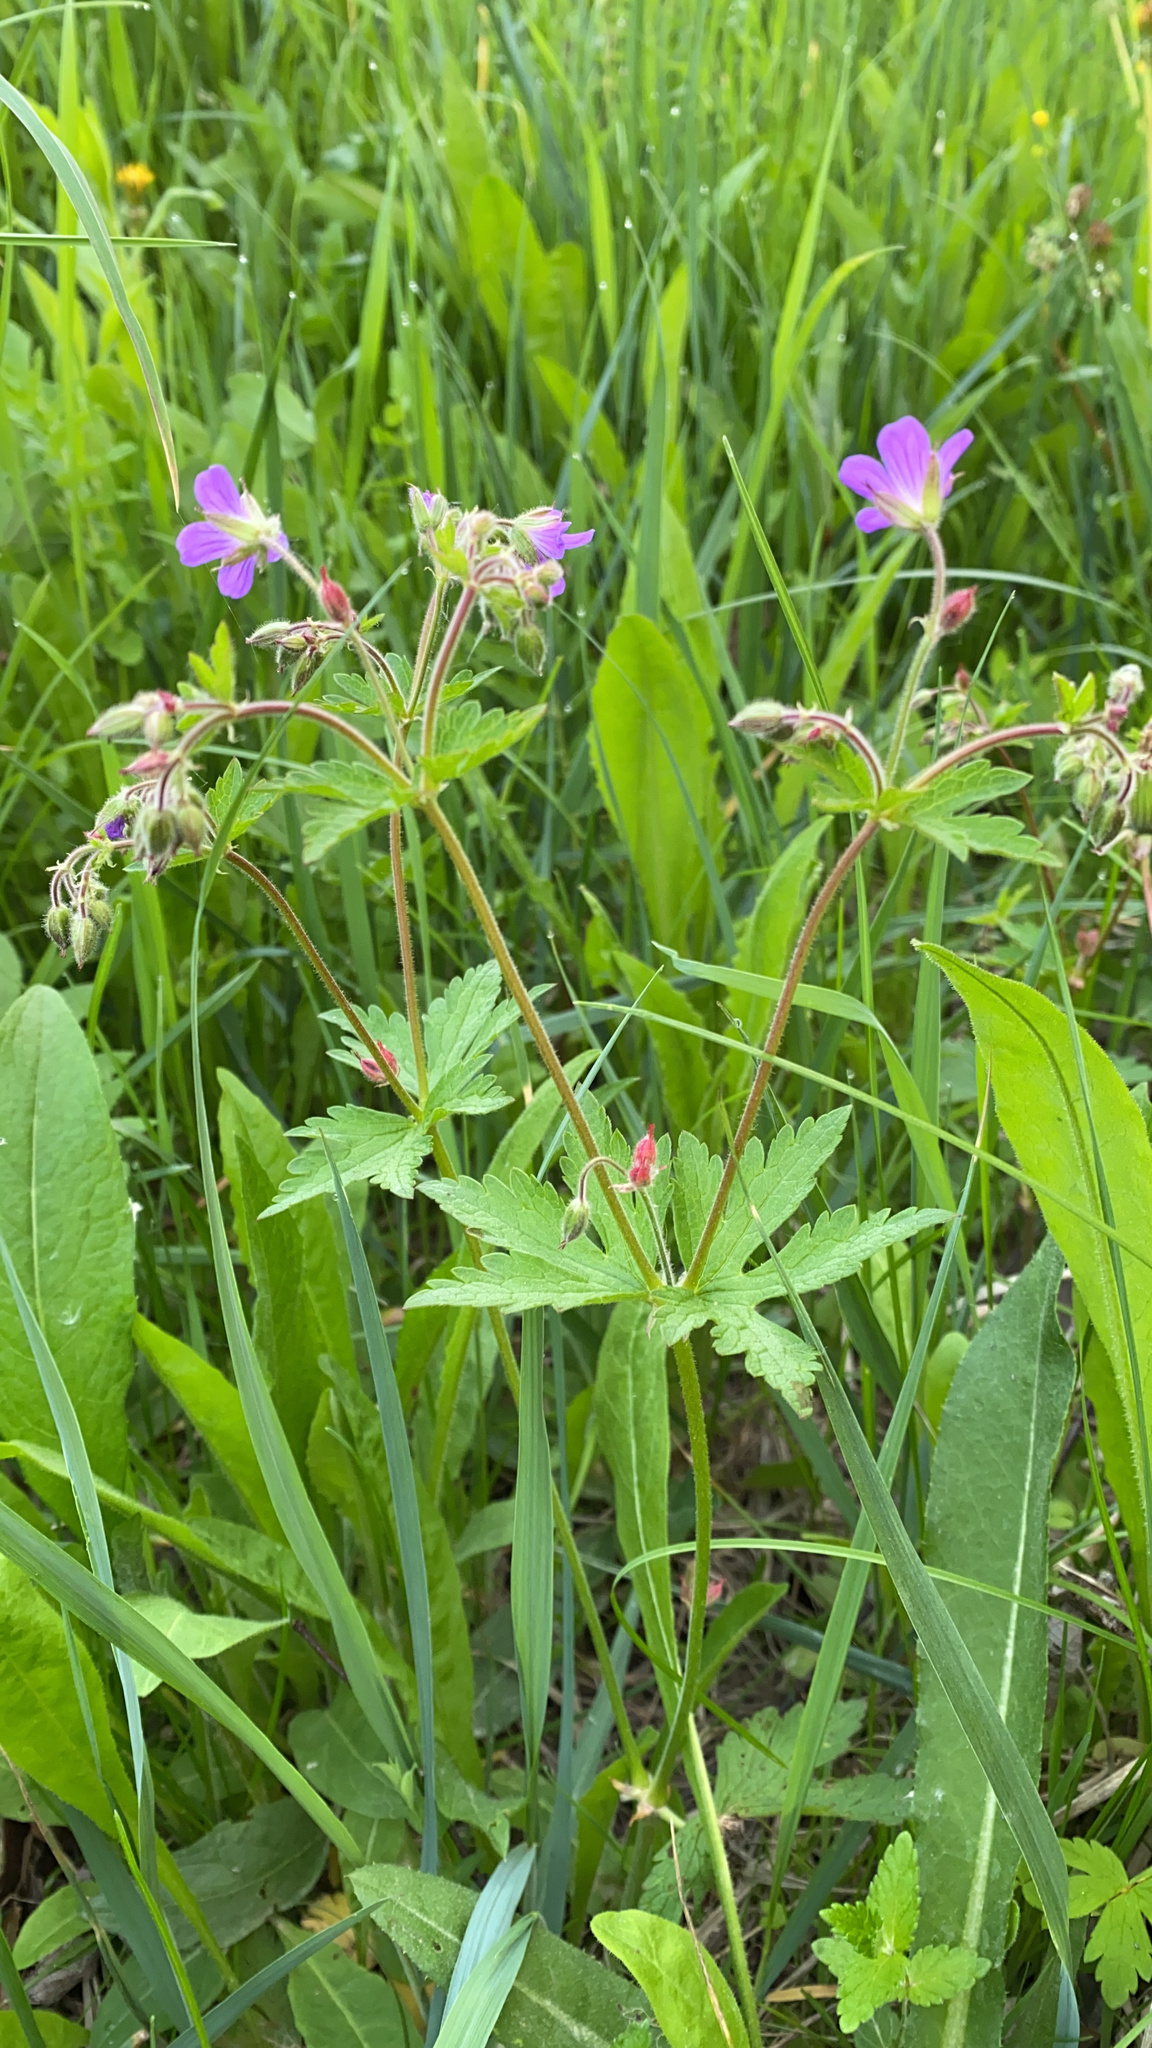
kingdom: Plantae
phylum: Tracheophyta
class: Magnoliopsida
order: Geraniales
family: Geraniaceae
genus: Geranium
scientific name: Geranium sylvaticum
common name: Wood crane's-bill
